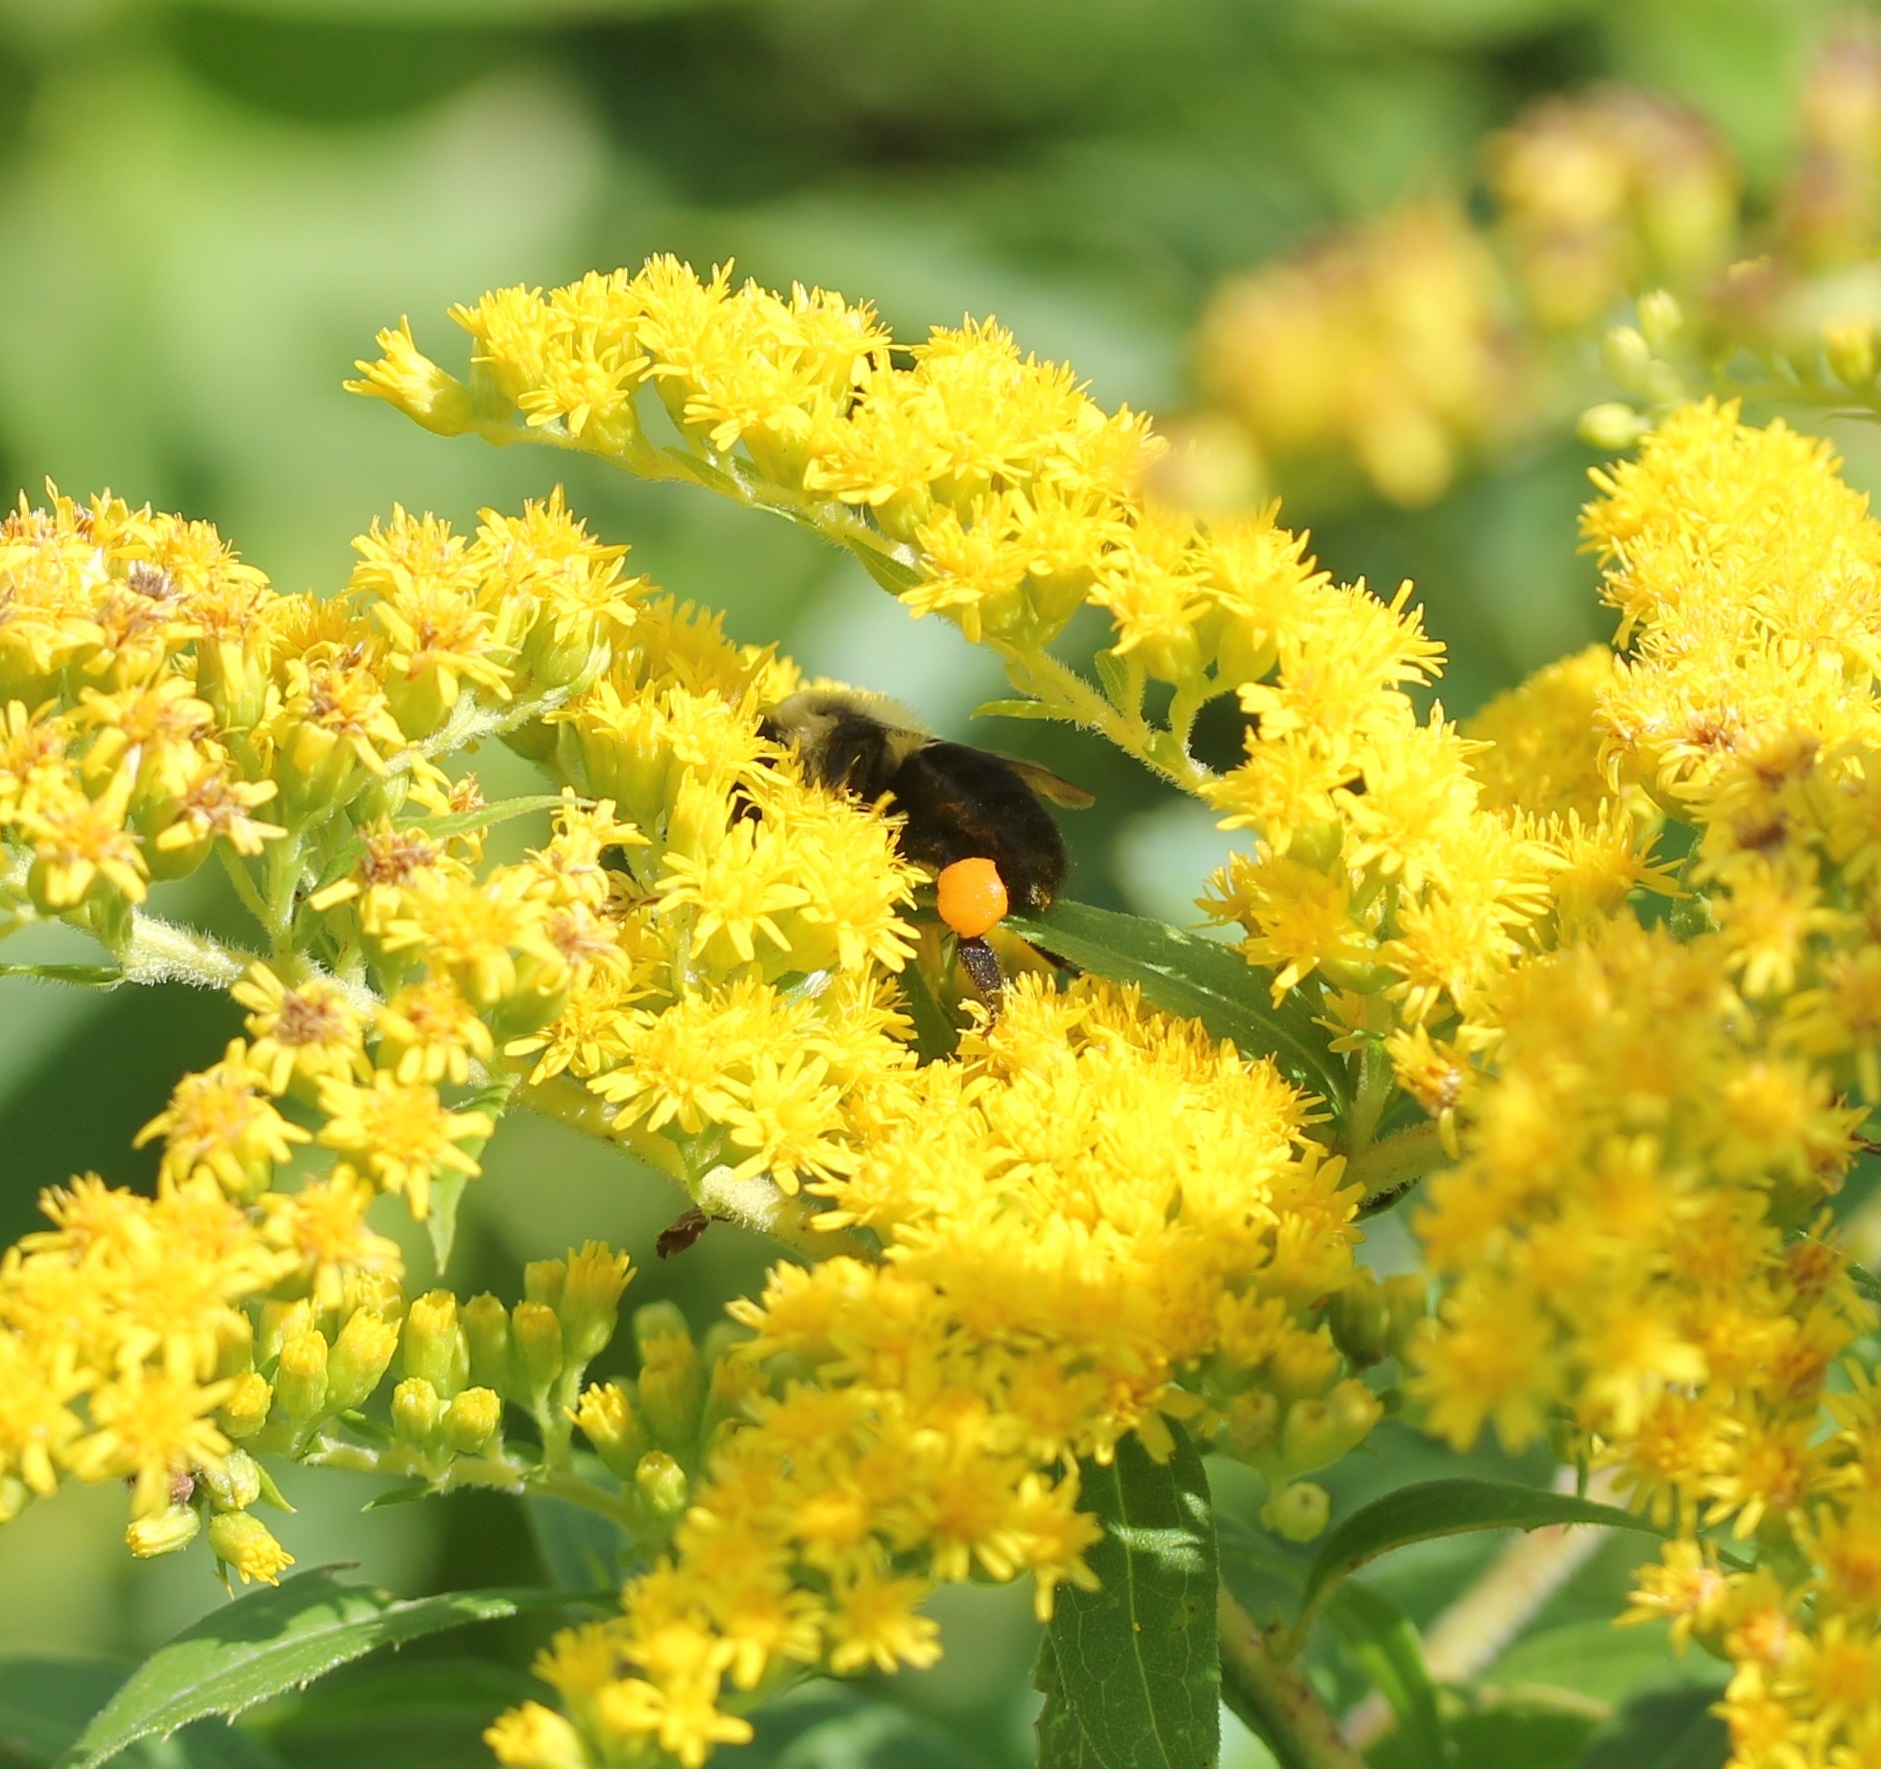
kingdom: Animalia
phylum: Arthropoda
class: Insecta
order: Hymenoptera
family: Apidae
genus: Bombus
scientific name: Bombus impatiens
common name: Common eastern bumble bee
